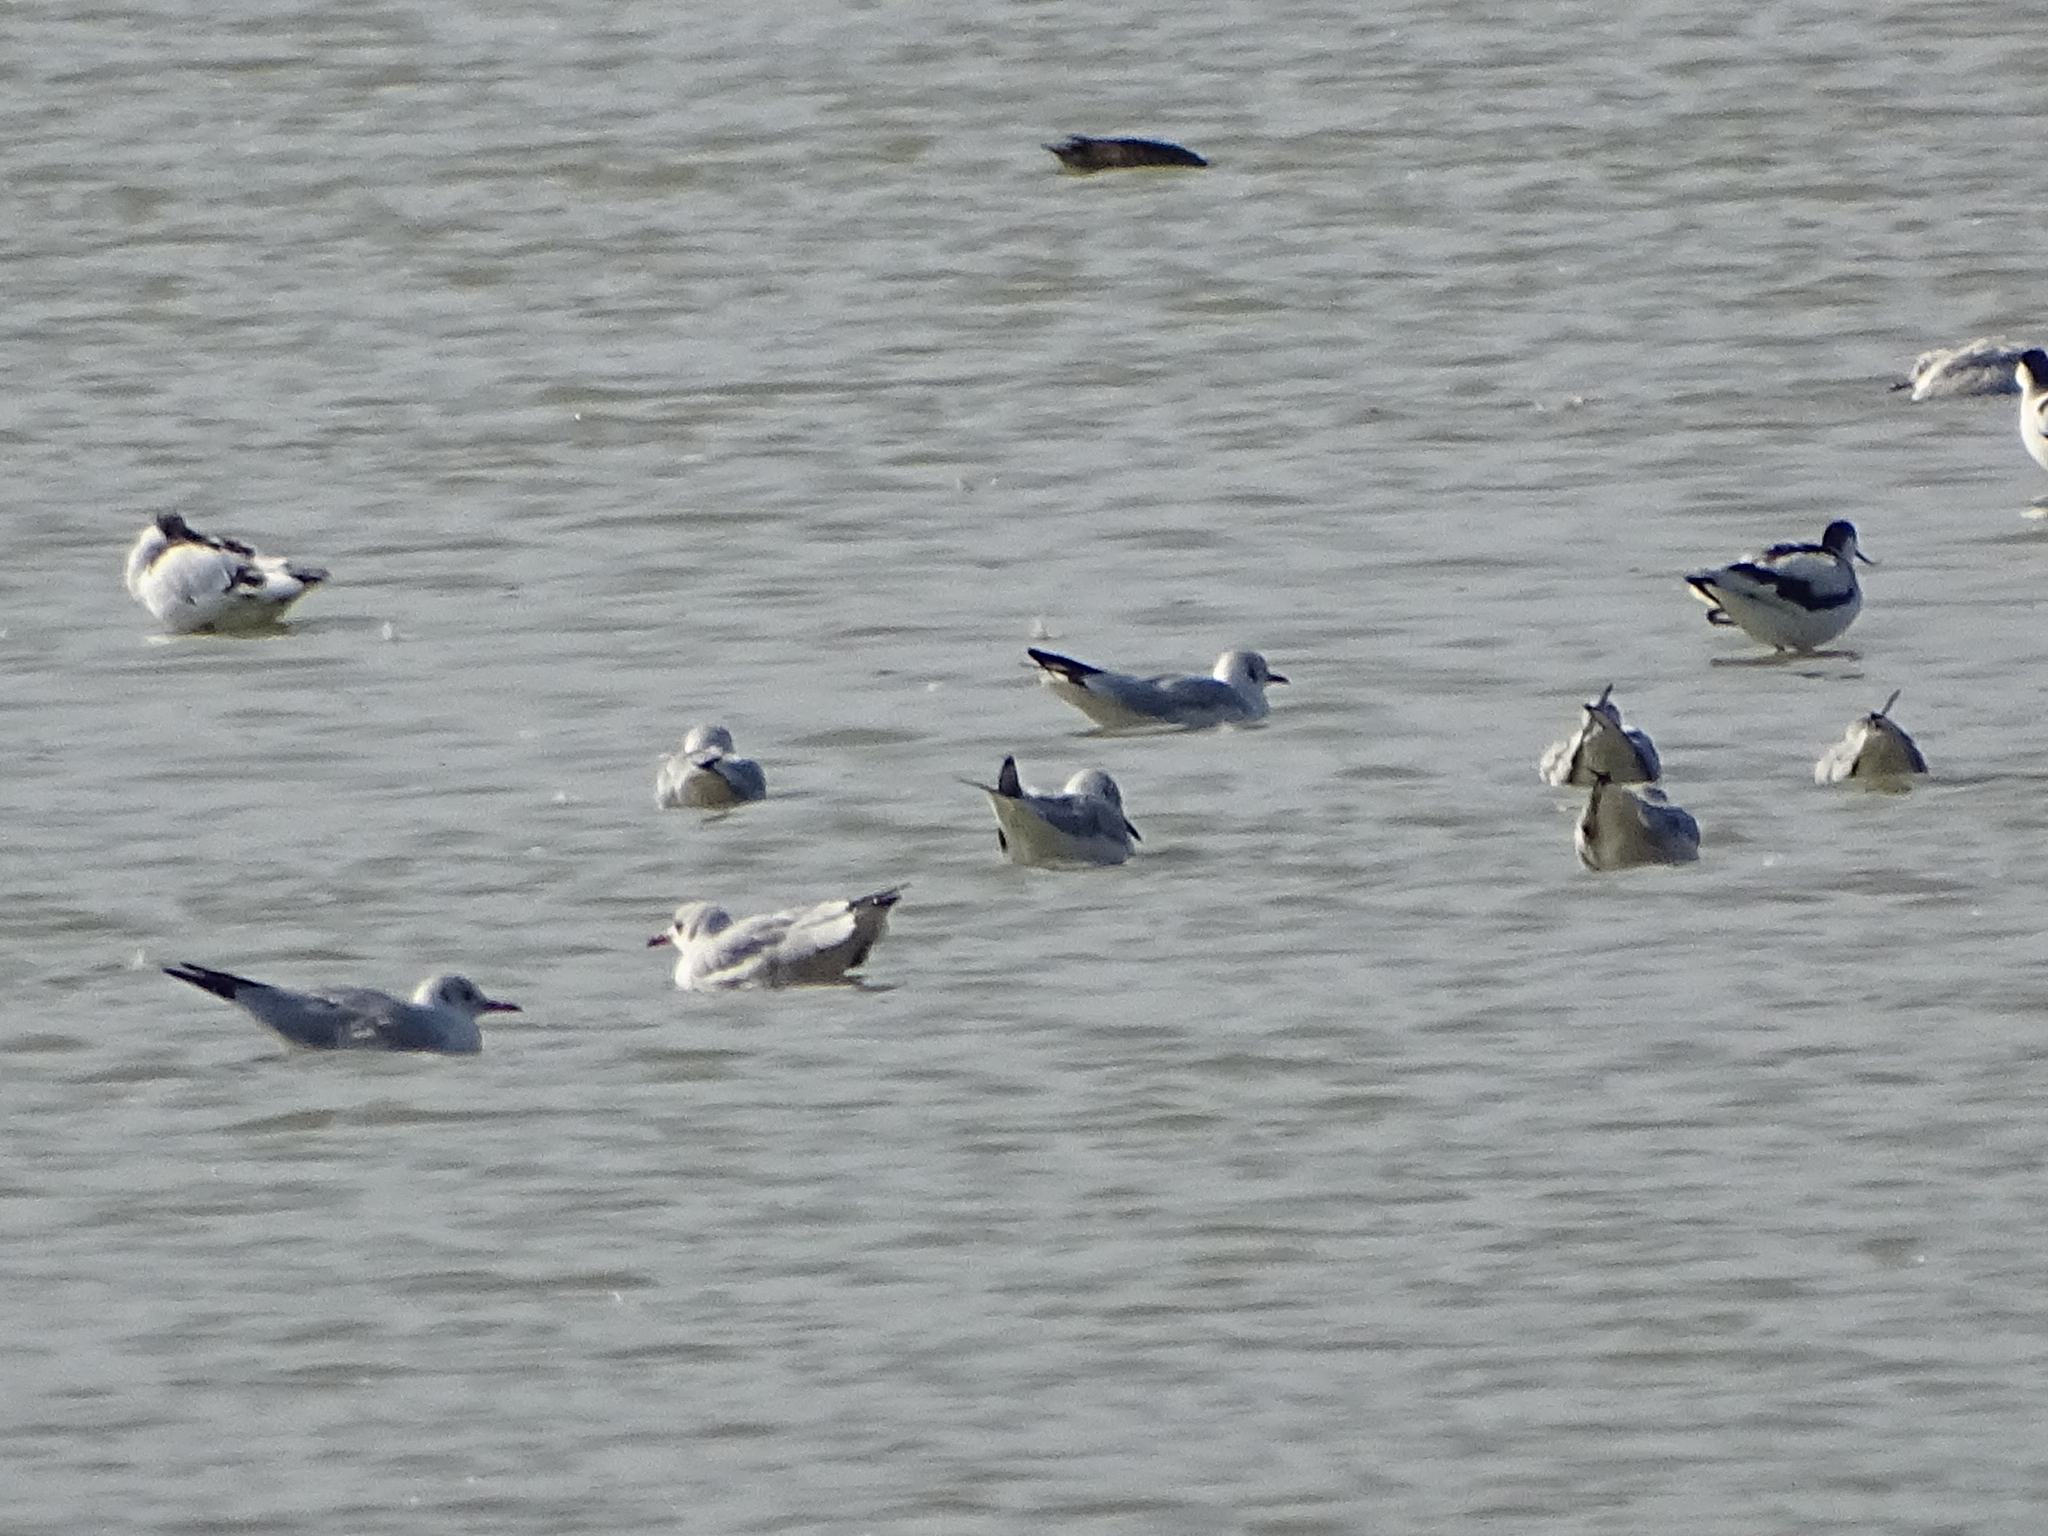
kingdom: Animalia
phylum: Chordata
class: Aves
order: Charadriiformes
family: Laridae
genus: Chroicocephalus
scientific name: Chroicocephalus ridibundus
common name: Black-headed gull
